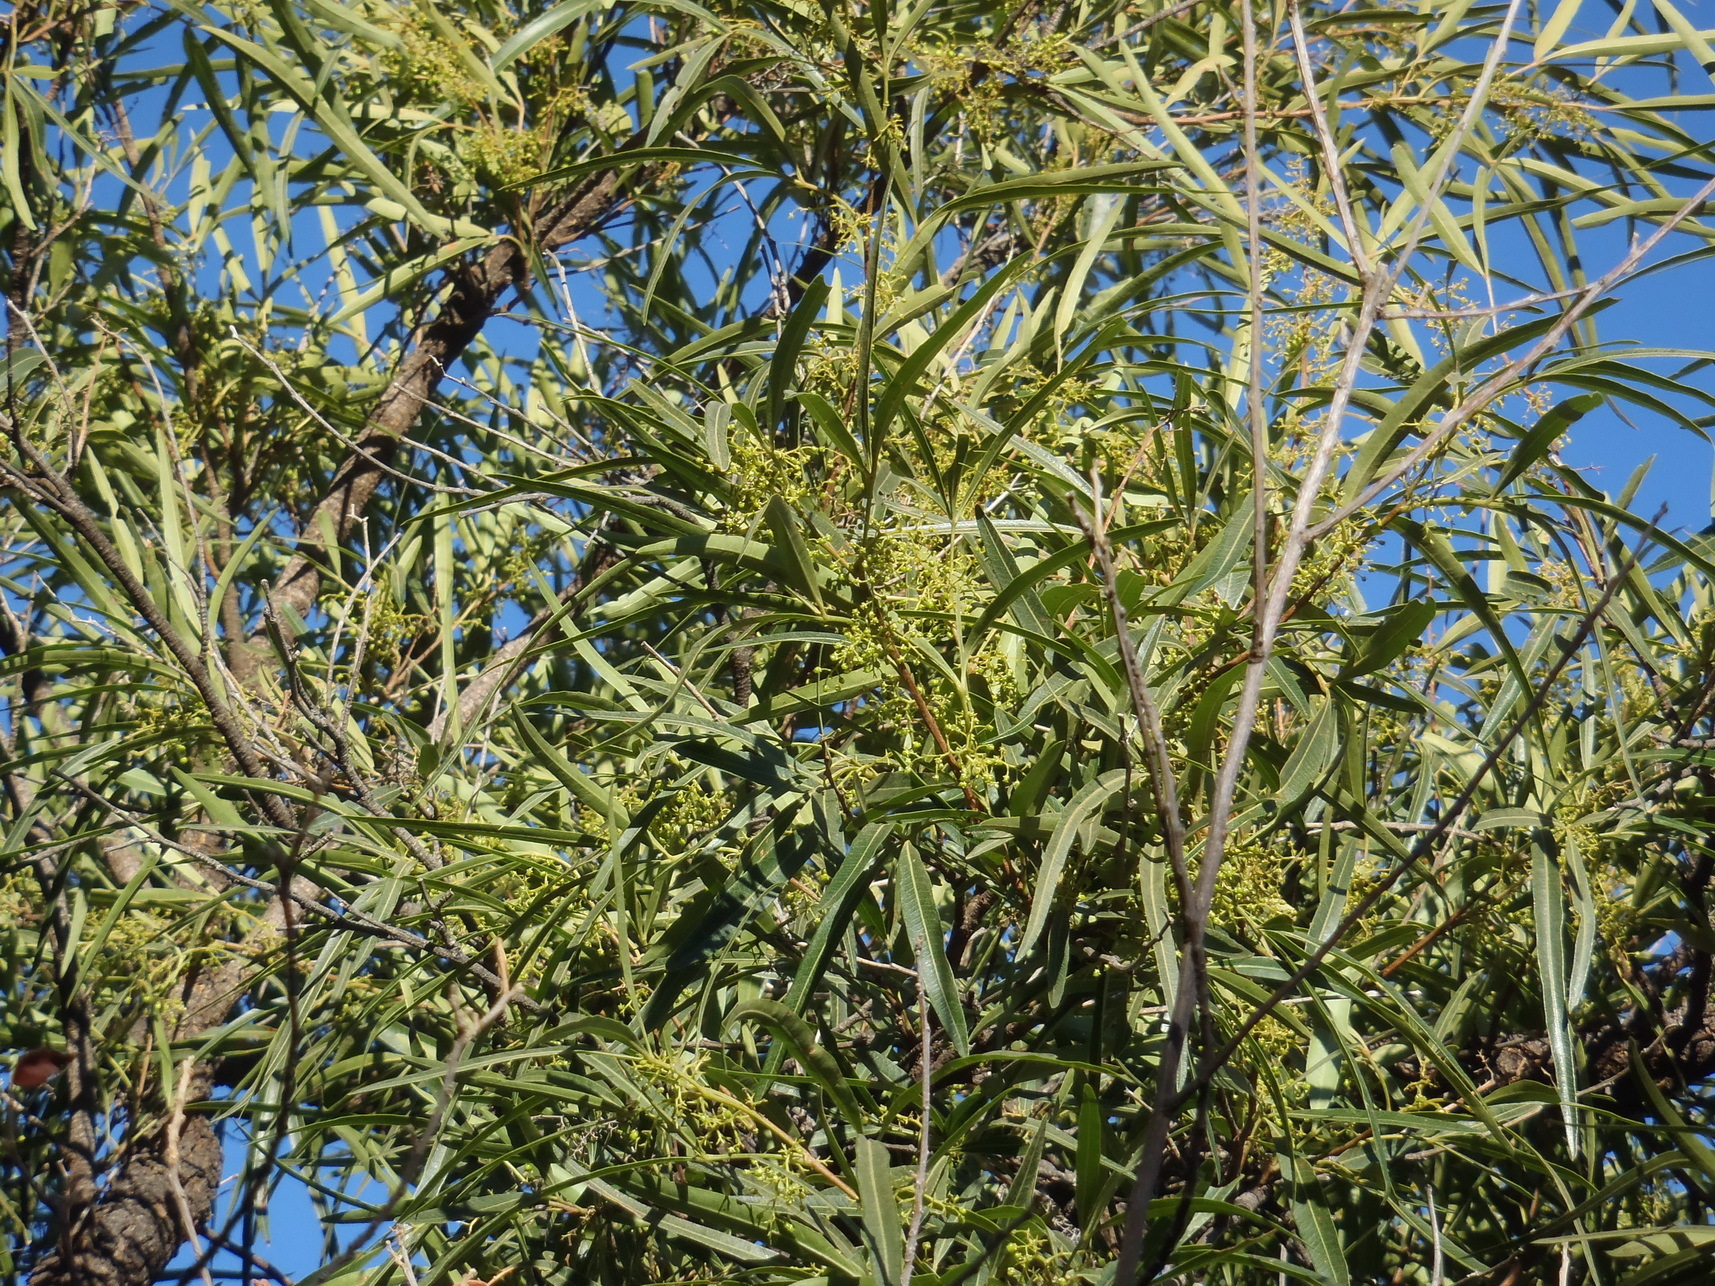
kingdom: Plantae
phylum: Tracheophyta
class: Magnoliopsida
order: Sapindales
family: Anacardiaceae
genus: Searsia
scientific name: Searsia lancea
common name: Cashew
